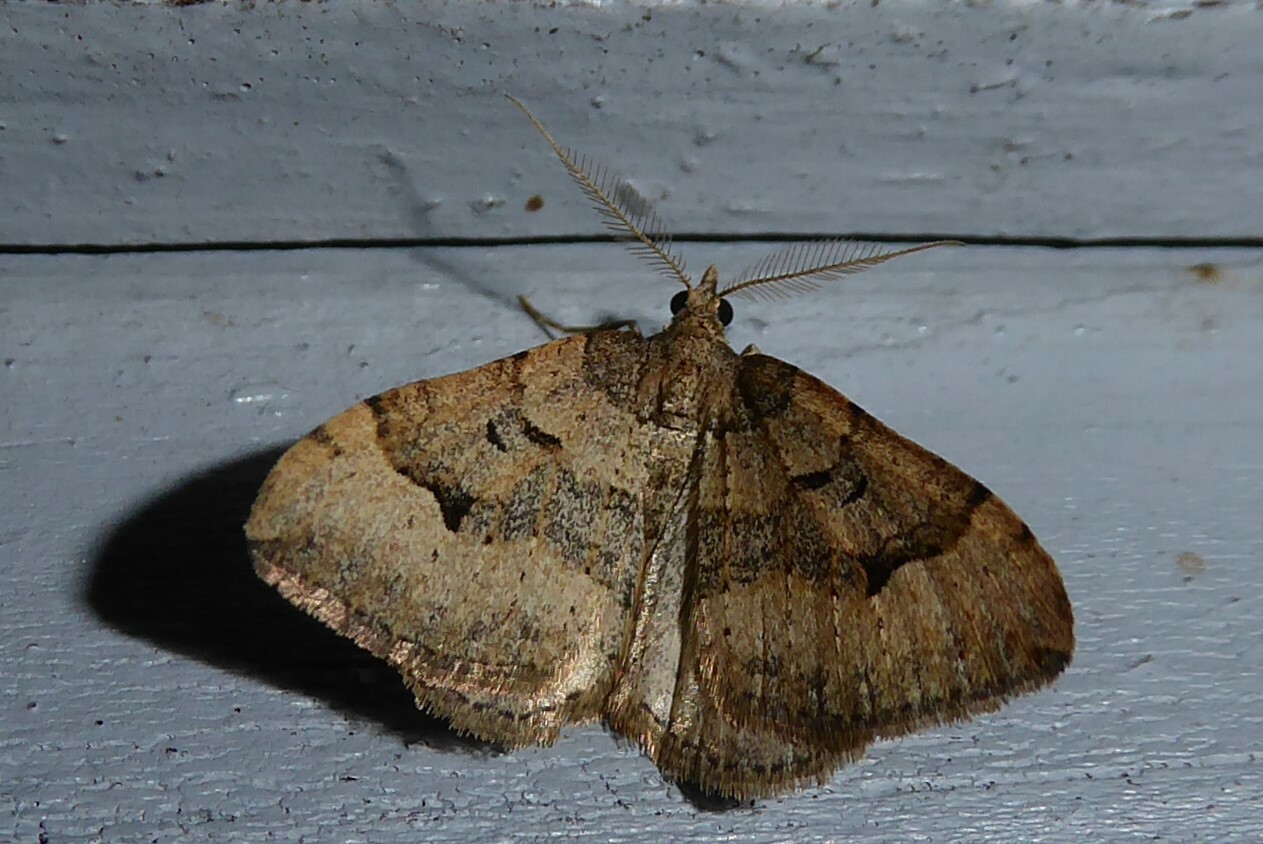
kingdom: Animalia
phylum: Arthropoda
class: Insecta
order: Lepidoptera
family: Geometridae
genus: Epyaxa
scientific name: Epyaxa rosearia
